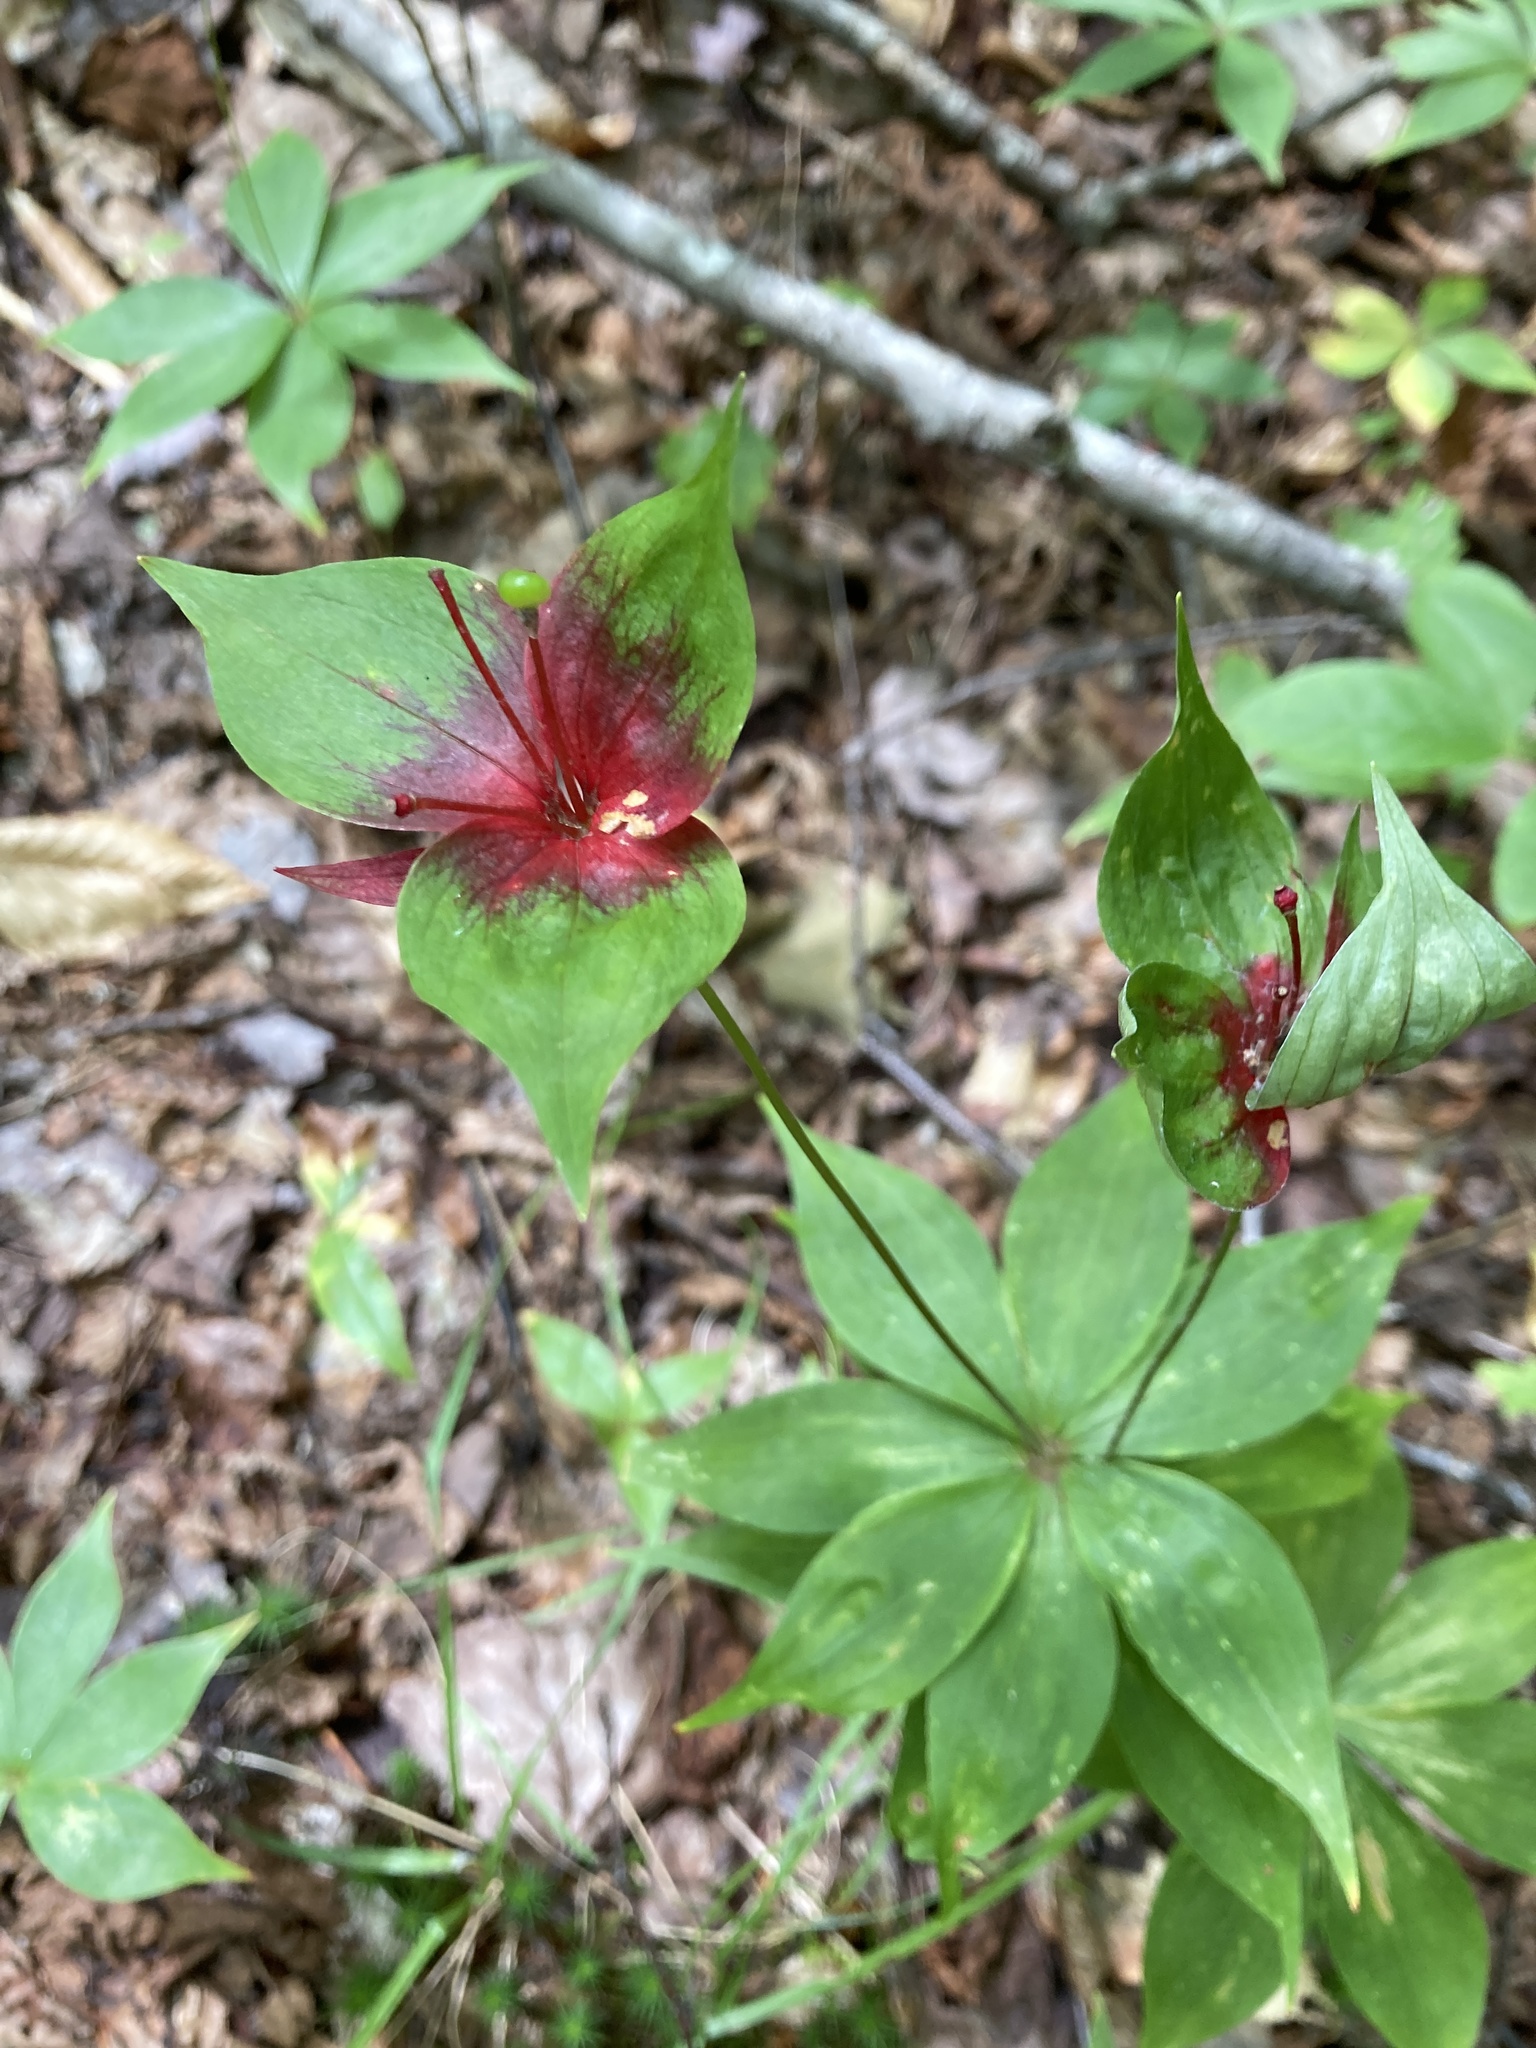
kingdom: Plantae
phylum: Tracheophyta
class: Liliopsida
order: Liliales
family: Liliaceae
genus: Medeola
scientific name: Medeola virginiana
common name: Indian cucumber-root
